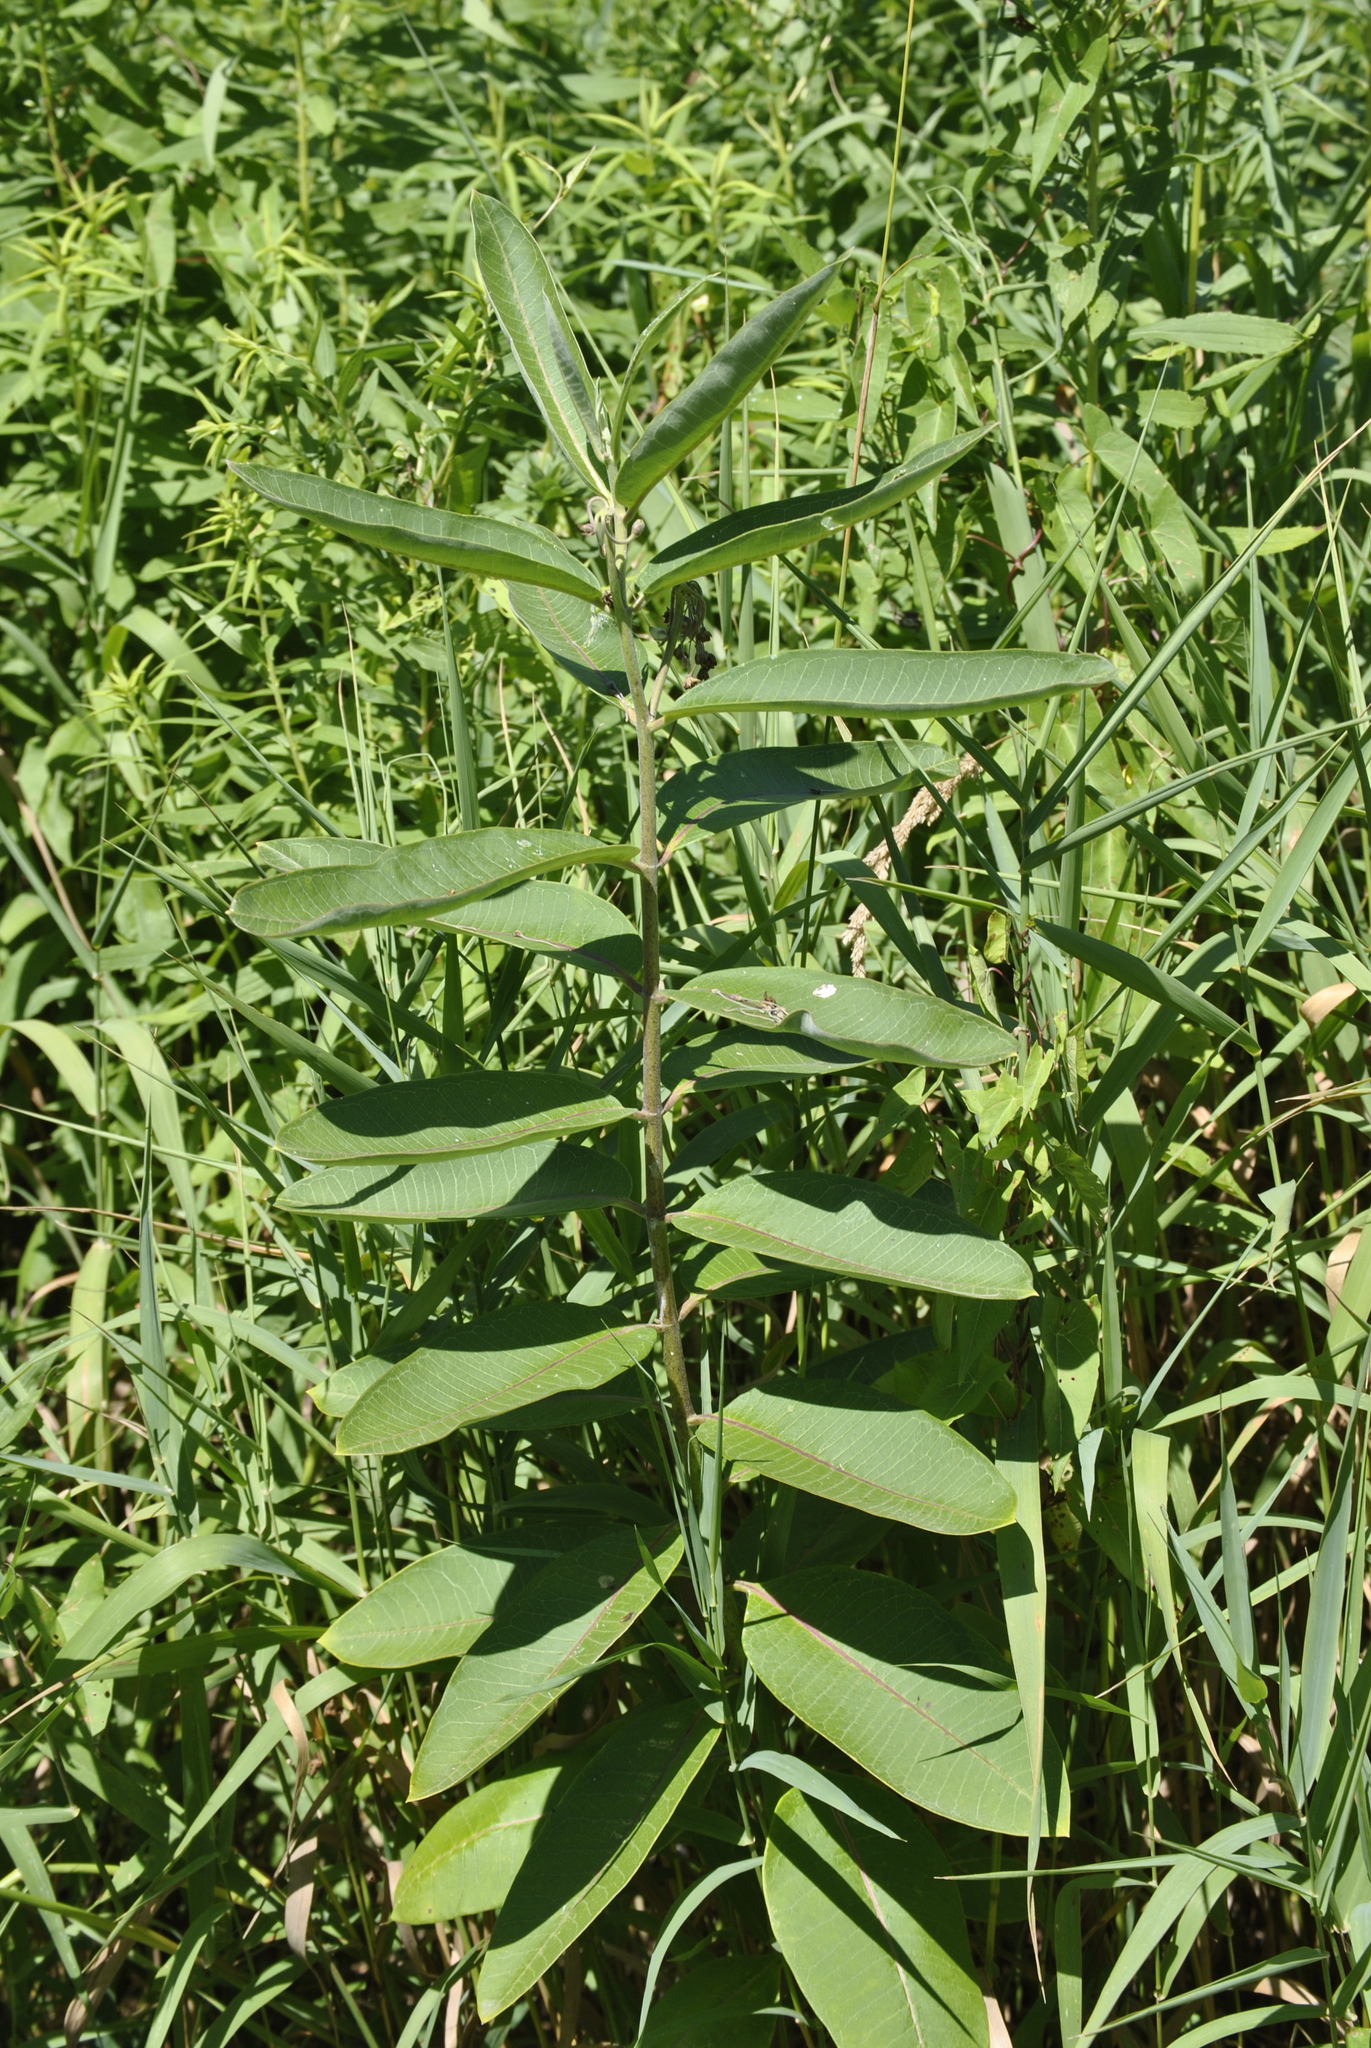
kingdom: Plantae
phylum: Tracheophyta
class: Magnoliopsida
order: Gentianales
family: Apocynaceae
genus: Asclepias
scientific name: Asclepias syriaca
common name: Common milkweed
